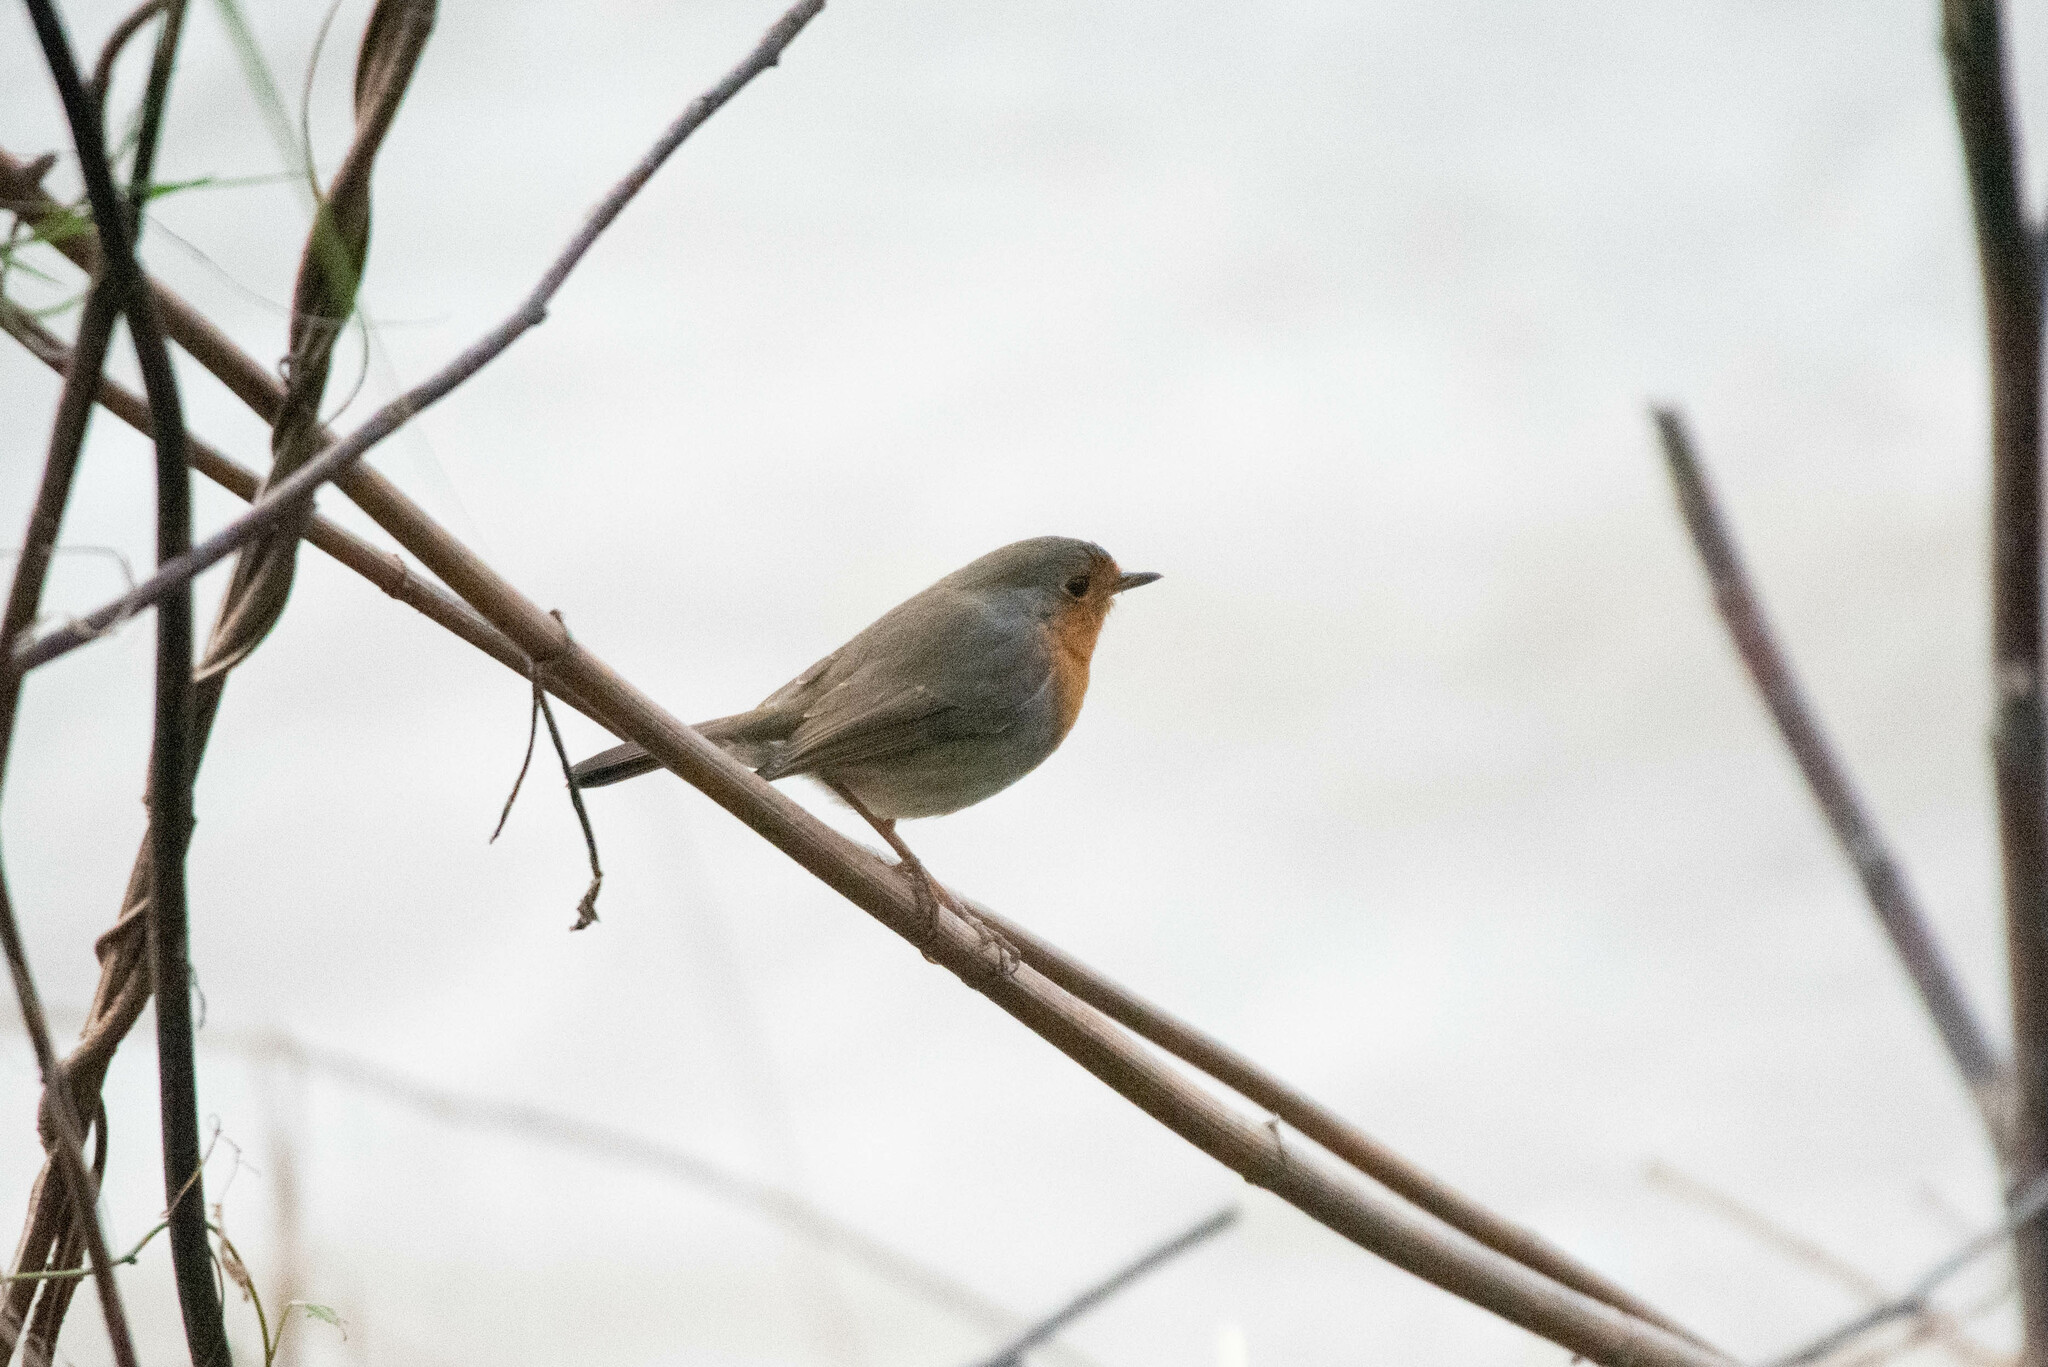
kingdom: Animalia
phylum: Chordata
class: Aves
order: Passeriformes
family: Muscicapidae
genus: Erithacus
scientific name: Erithacus rubecula
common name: European robin
